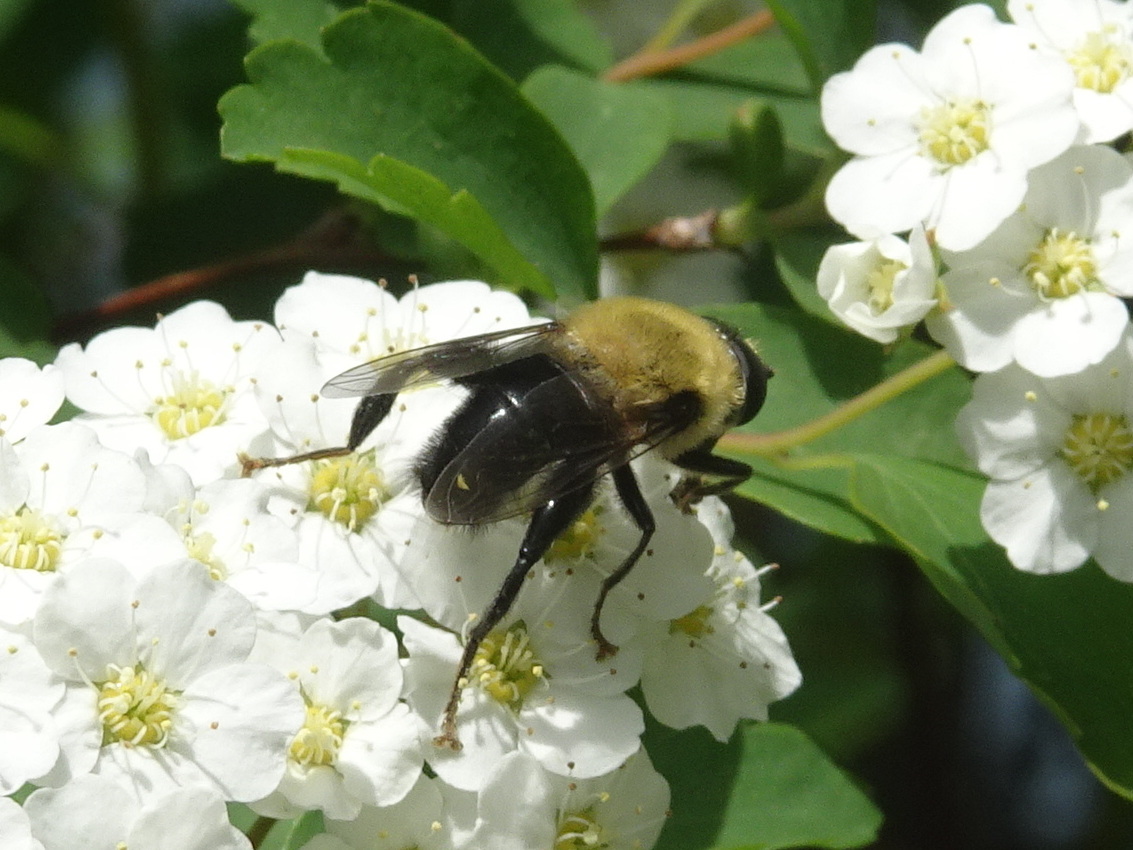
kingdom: Animalia
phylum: Arthropoda
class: Insecta
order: Diptera
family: Syrphidae
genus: Imatisma
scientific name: Imatisma bautias
